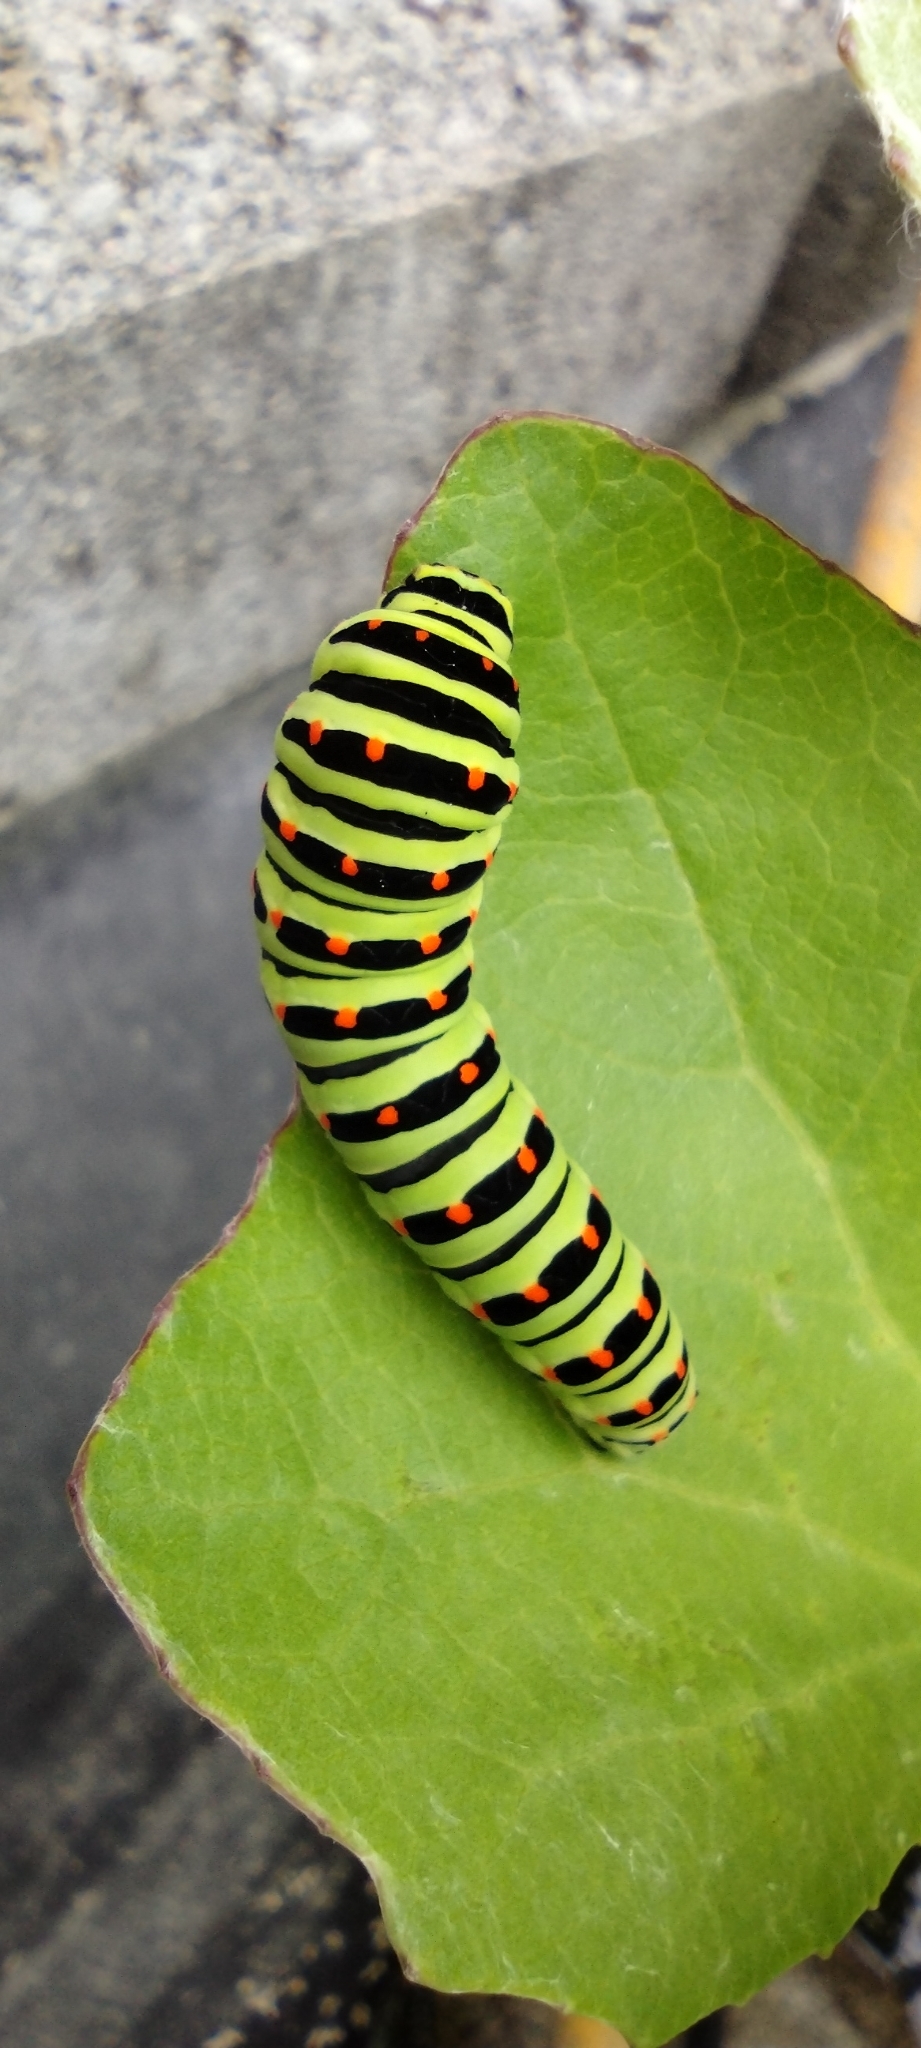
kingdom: Animalia
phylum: Arthropoda
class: Insecta
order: Lepidoptera
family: Papilionidae
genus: Papilio
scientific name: Papilio machaon
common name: Swallowtail
